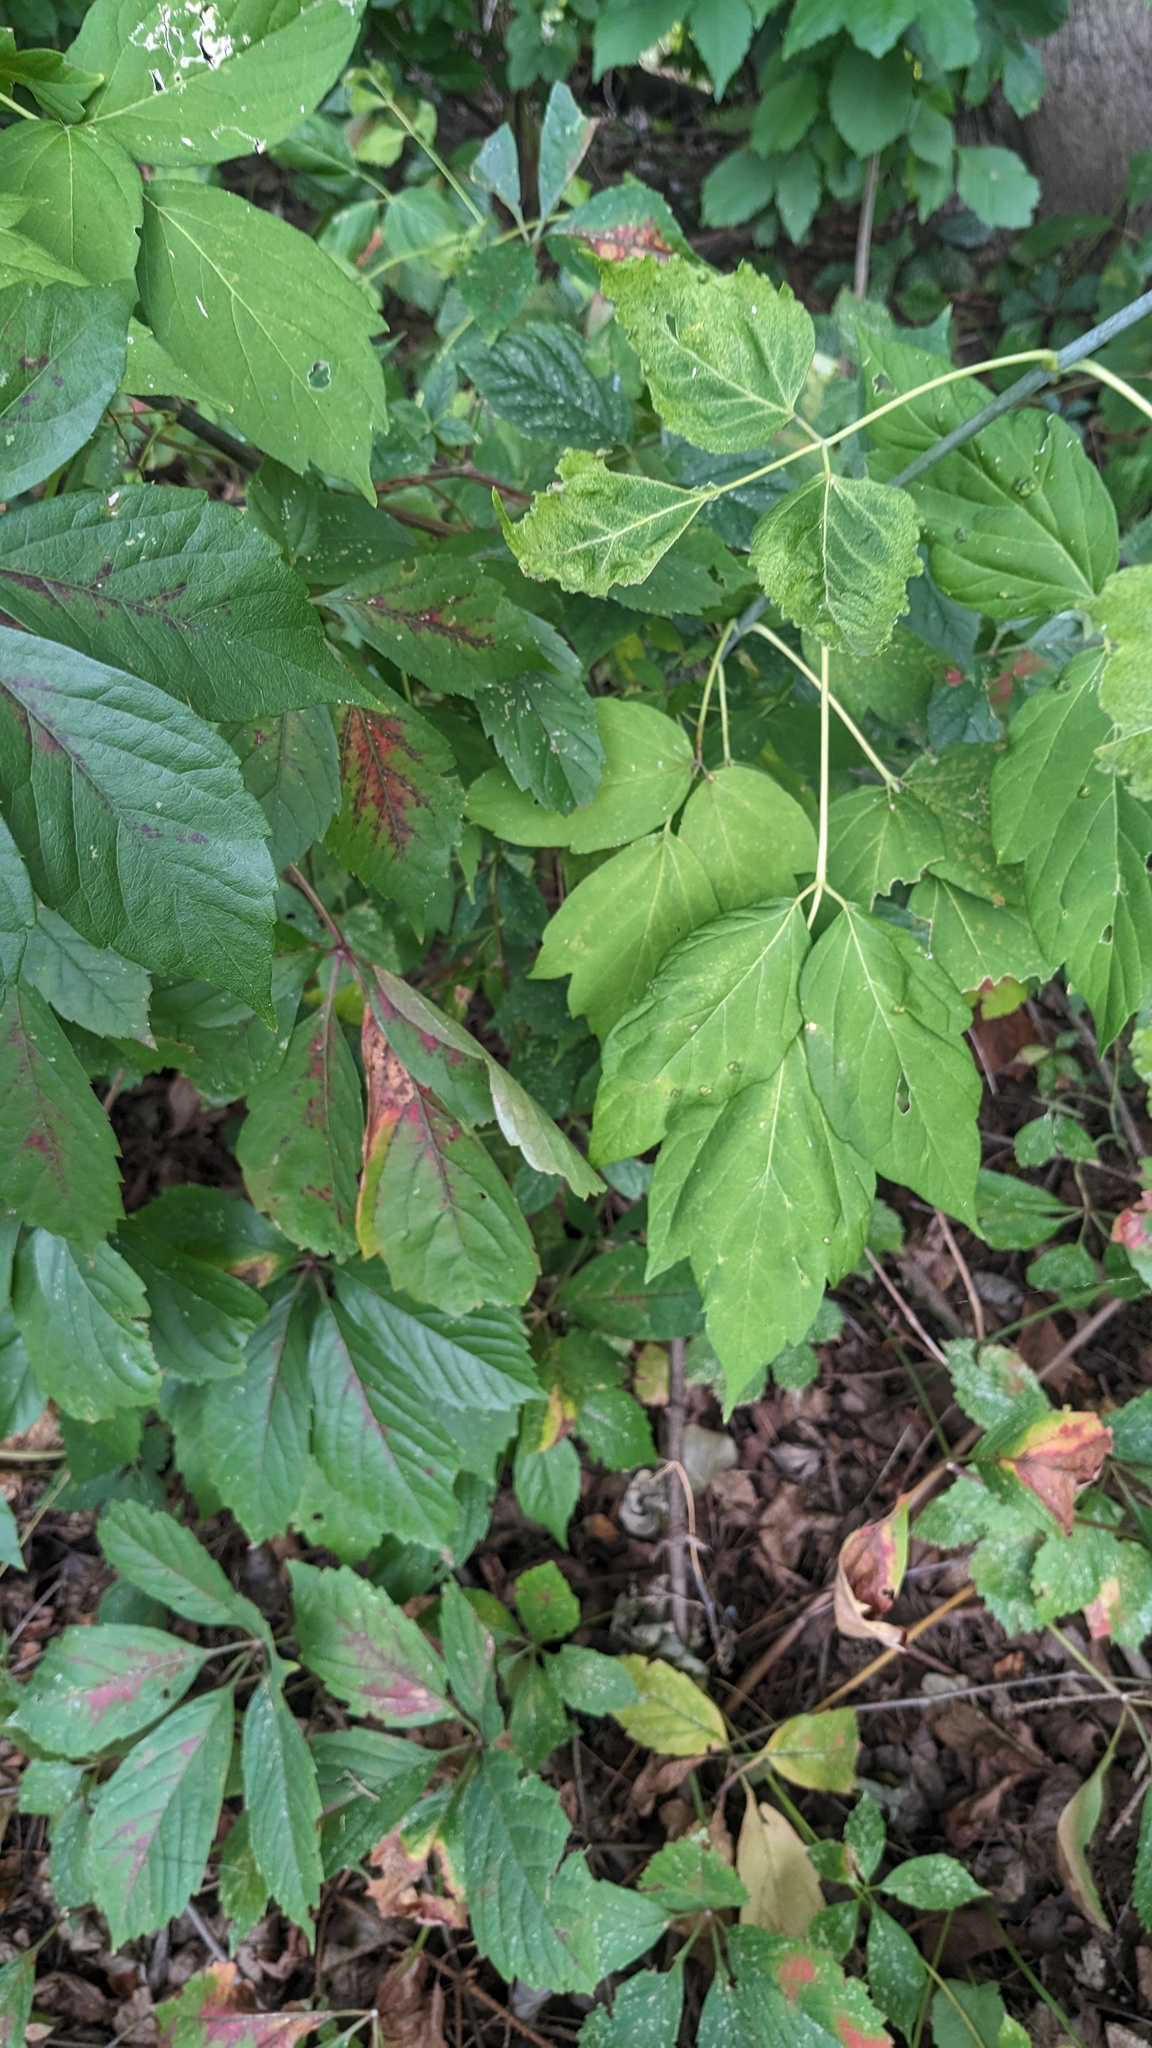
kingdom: Plantae
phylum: Tracheophyta
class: Magnoliopsida
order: Sapindales
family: Sapindaceae
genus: Acer
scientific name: Acer negundo
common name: Ashleaf maple
